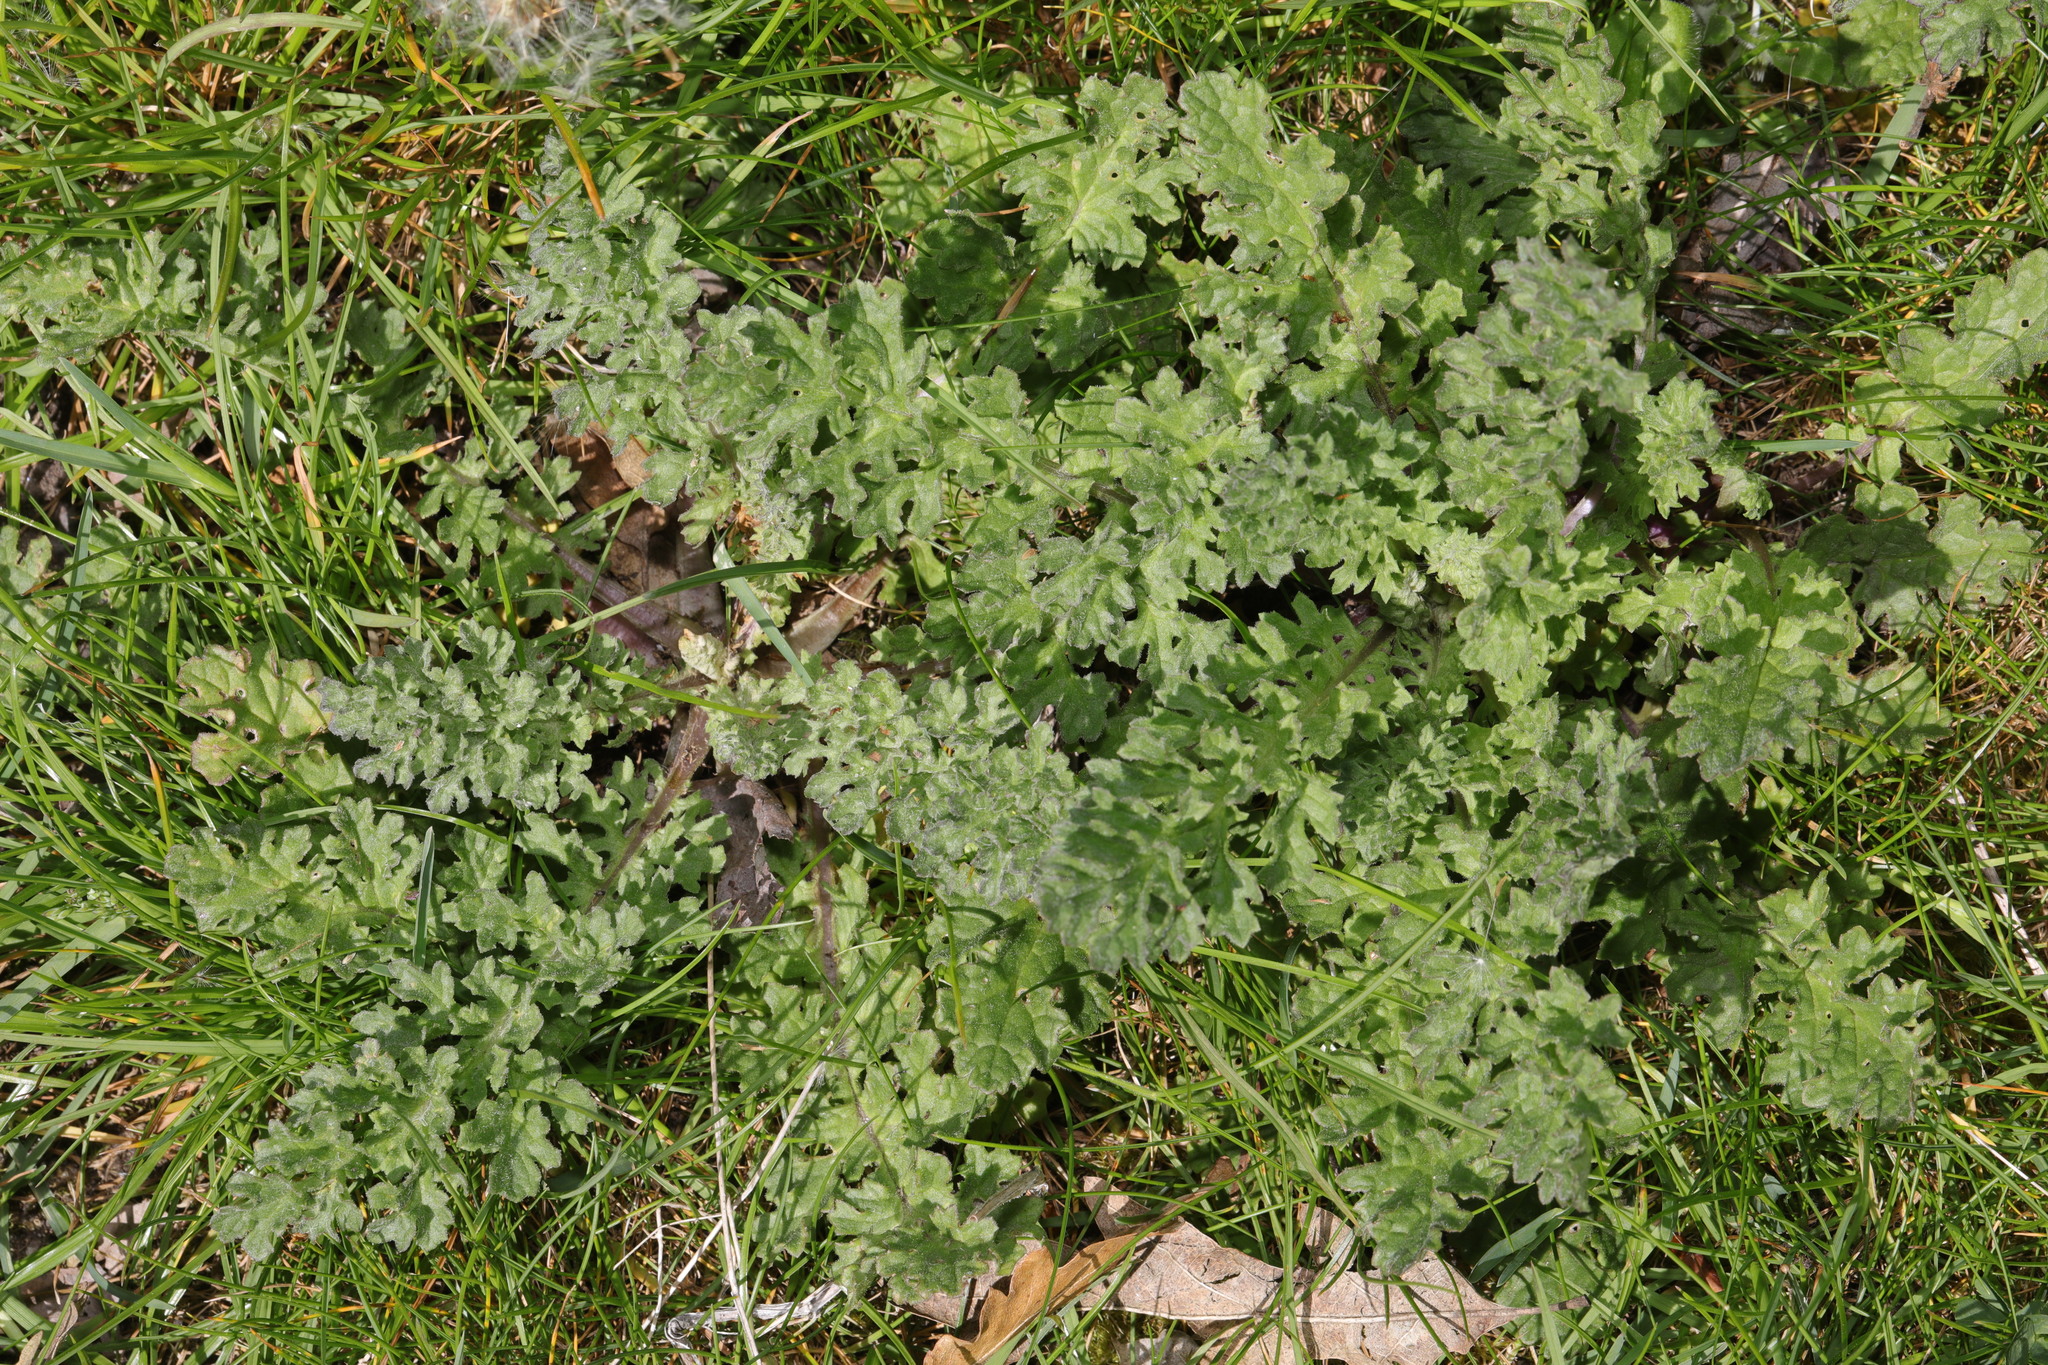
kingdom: Plantae
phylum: Tracheophyta
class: Magnoliopsida
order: Asterales
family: Asteraceae
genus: Jacobaea
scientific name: Jacobaea vulgaris
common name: Stinking willie
